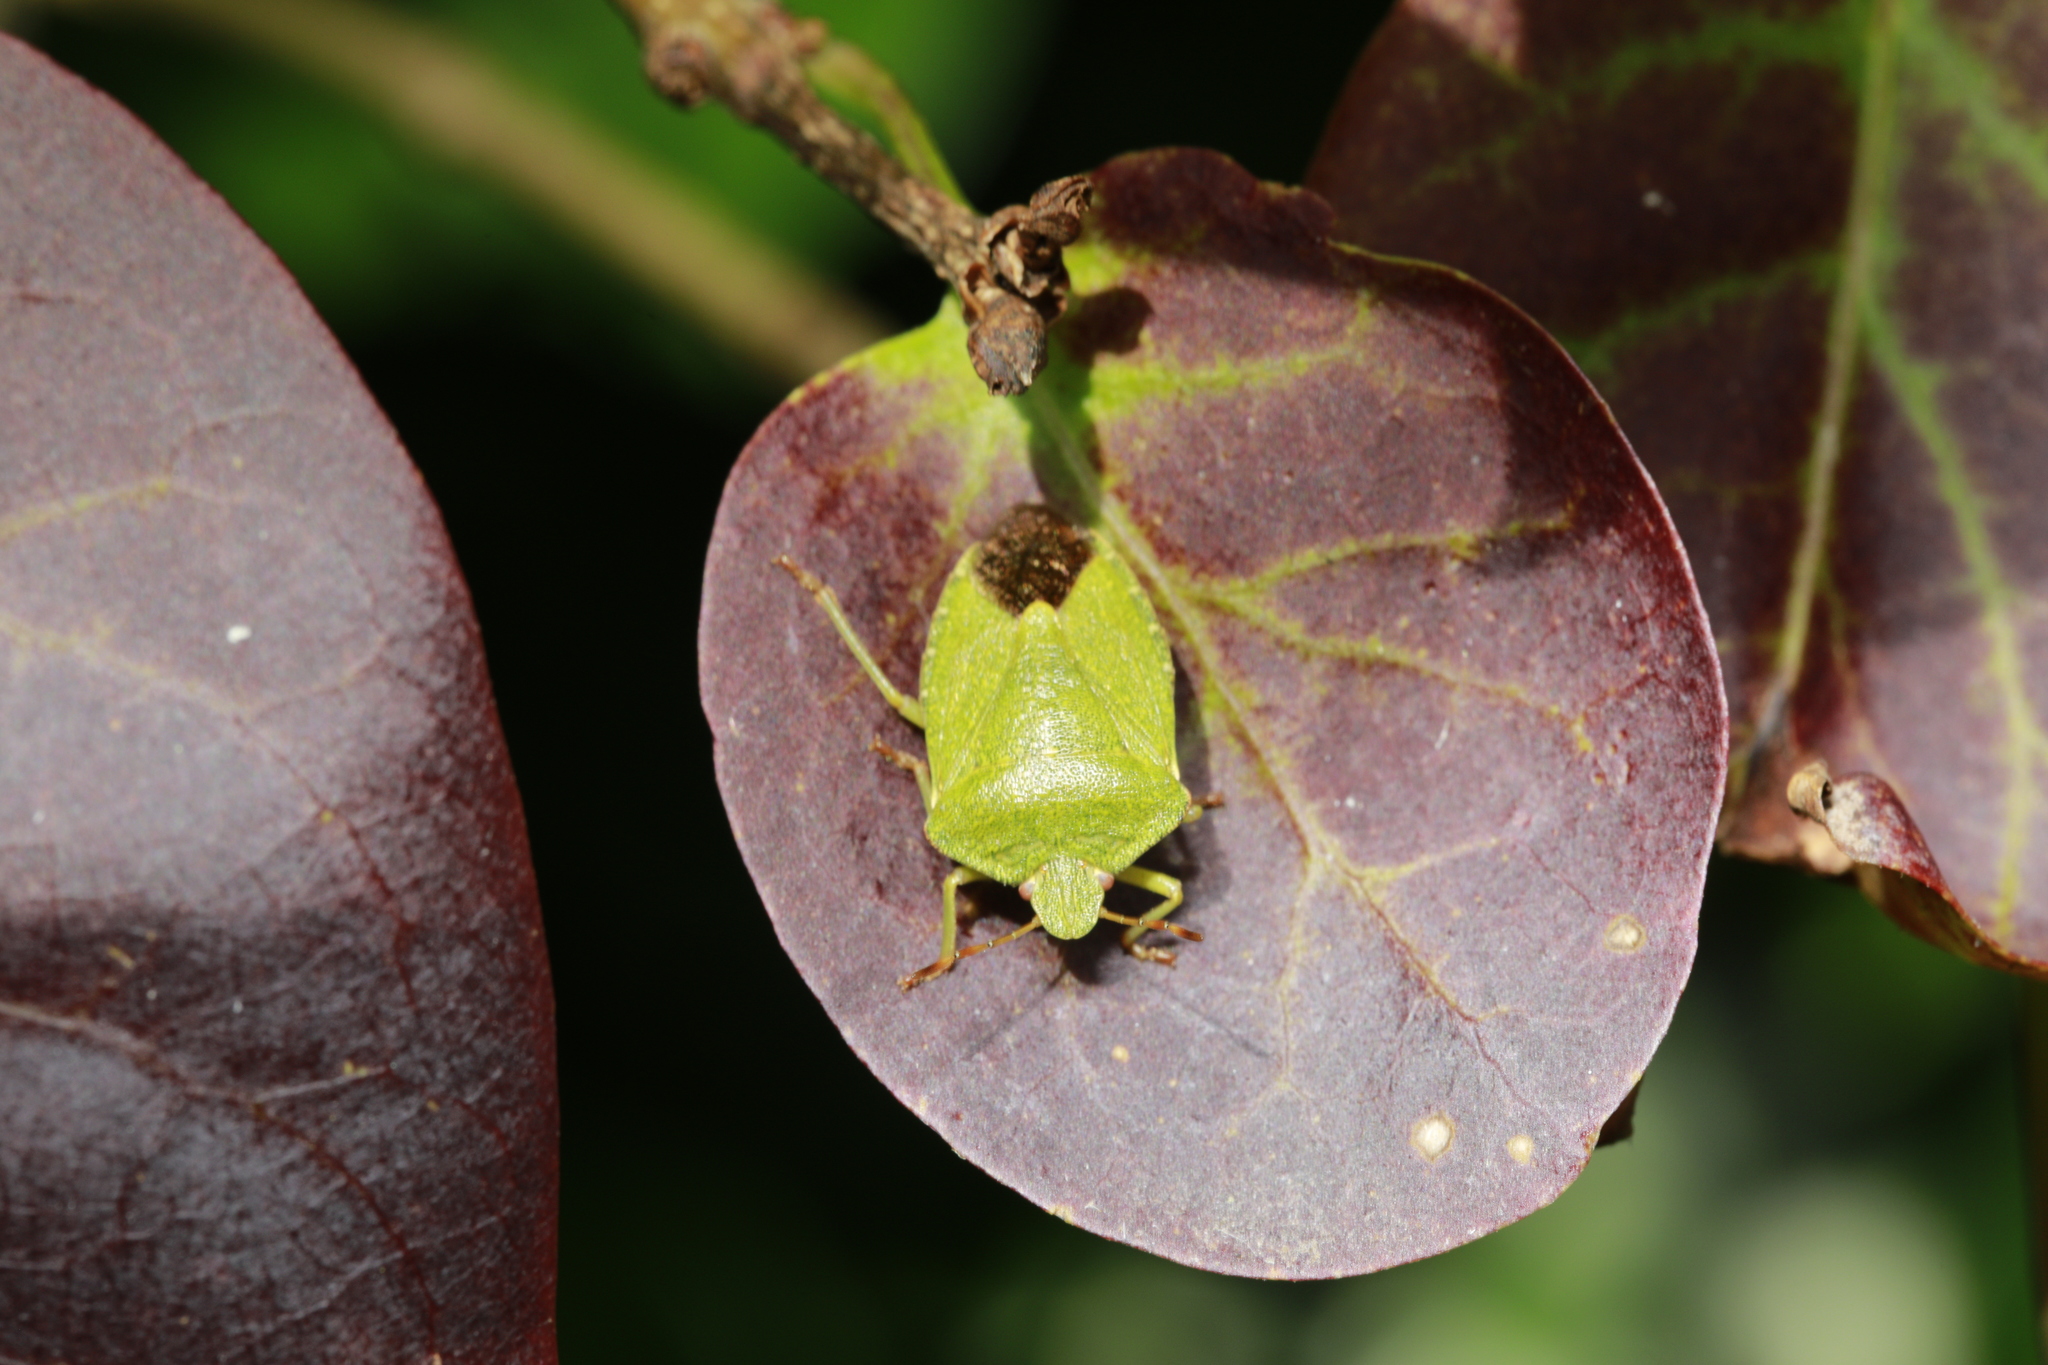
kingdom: Animalia
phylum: Arthropoda
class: Insecta
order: Hemiptera
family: Pentatomidae
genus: Palomena
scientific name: Palomena prasina
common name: Green shieldbug
